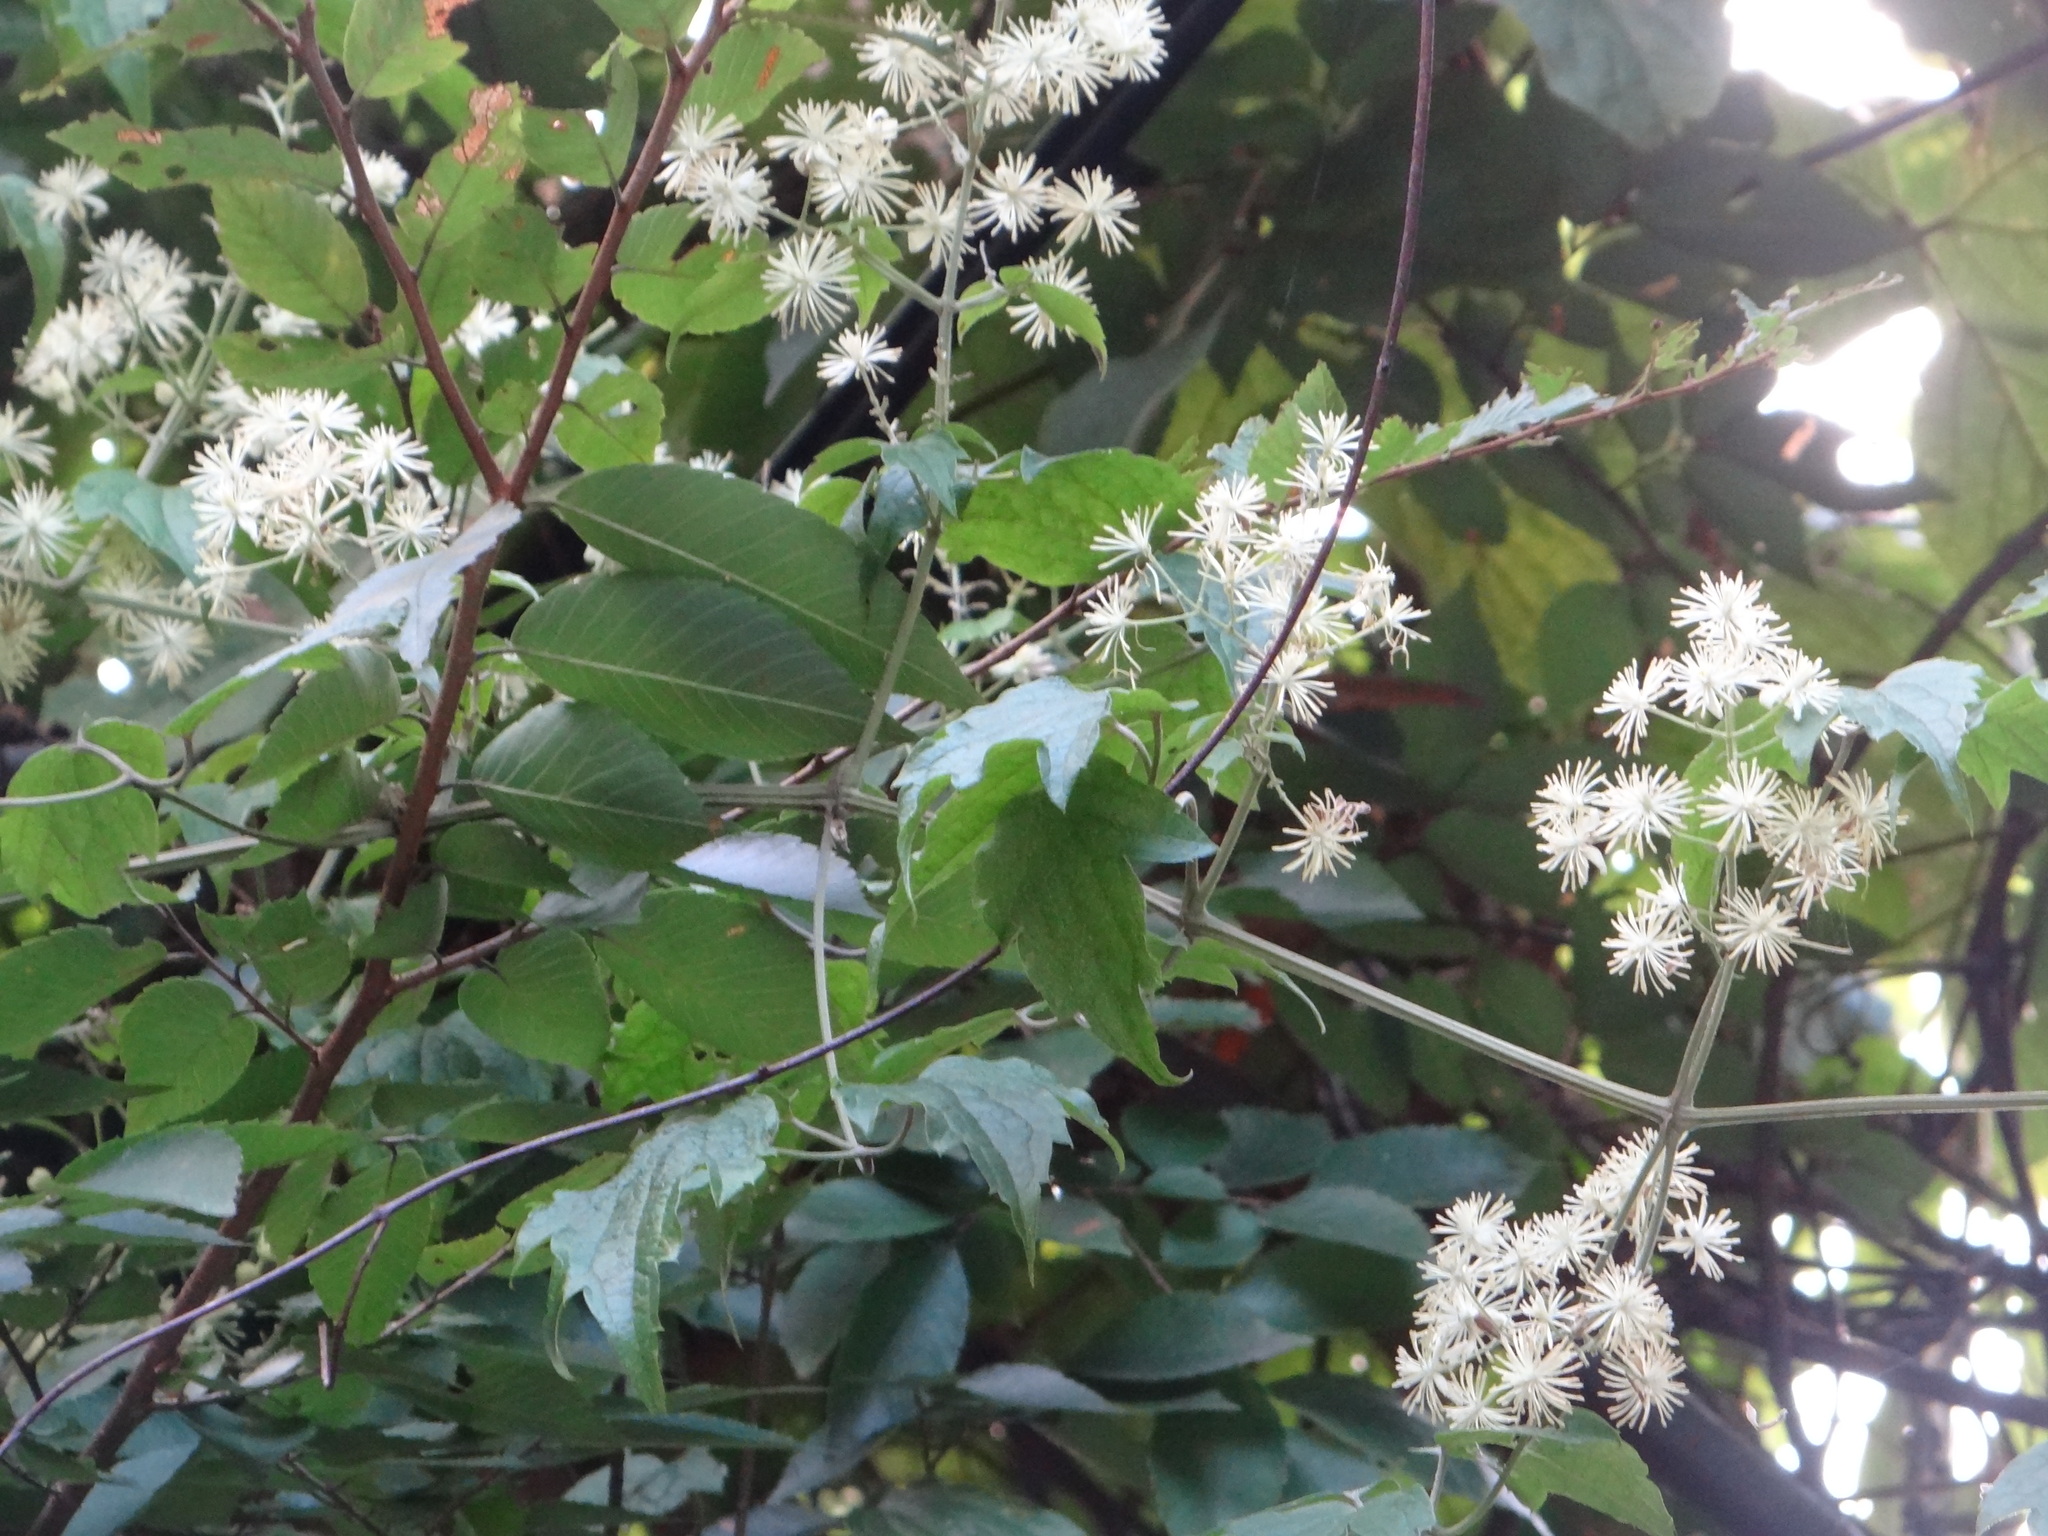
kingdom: Plantae
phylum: Tracheophyta
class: Magnoliopsida
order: Ranunculales
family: Ranunculaceae
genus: Clematis
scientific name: Clematis grata
